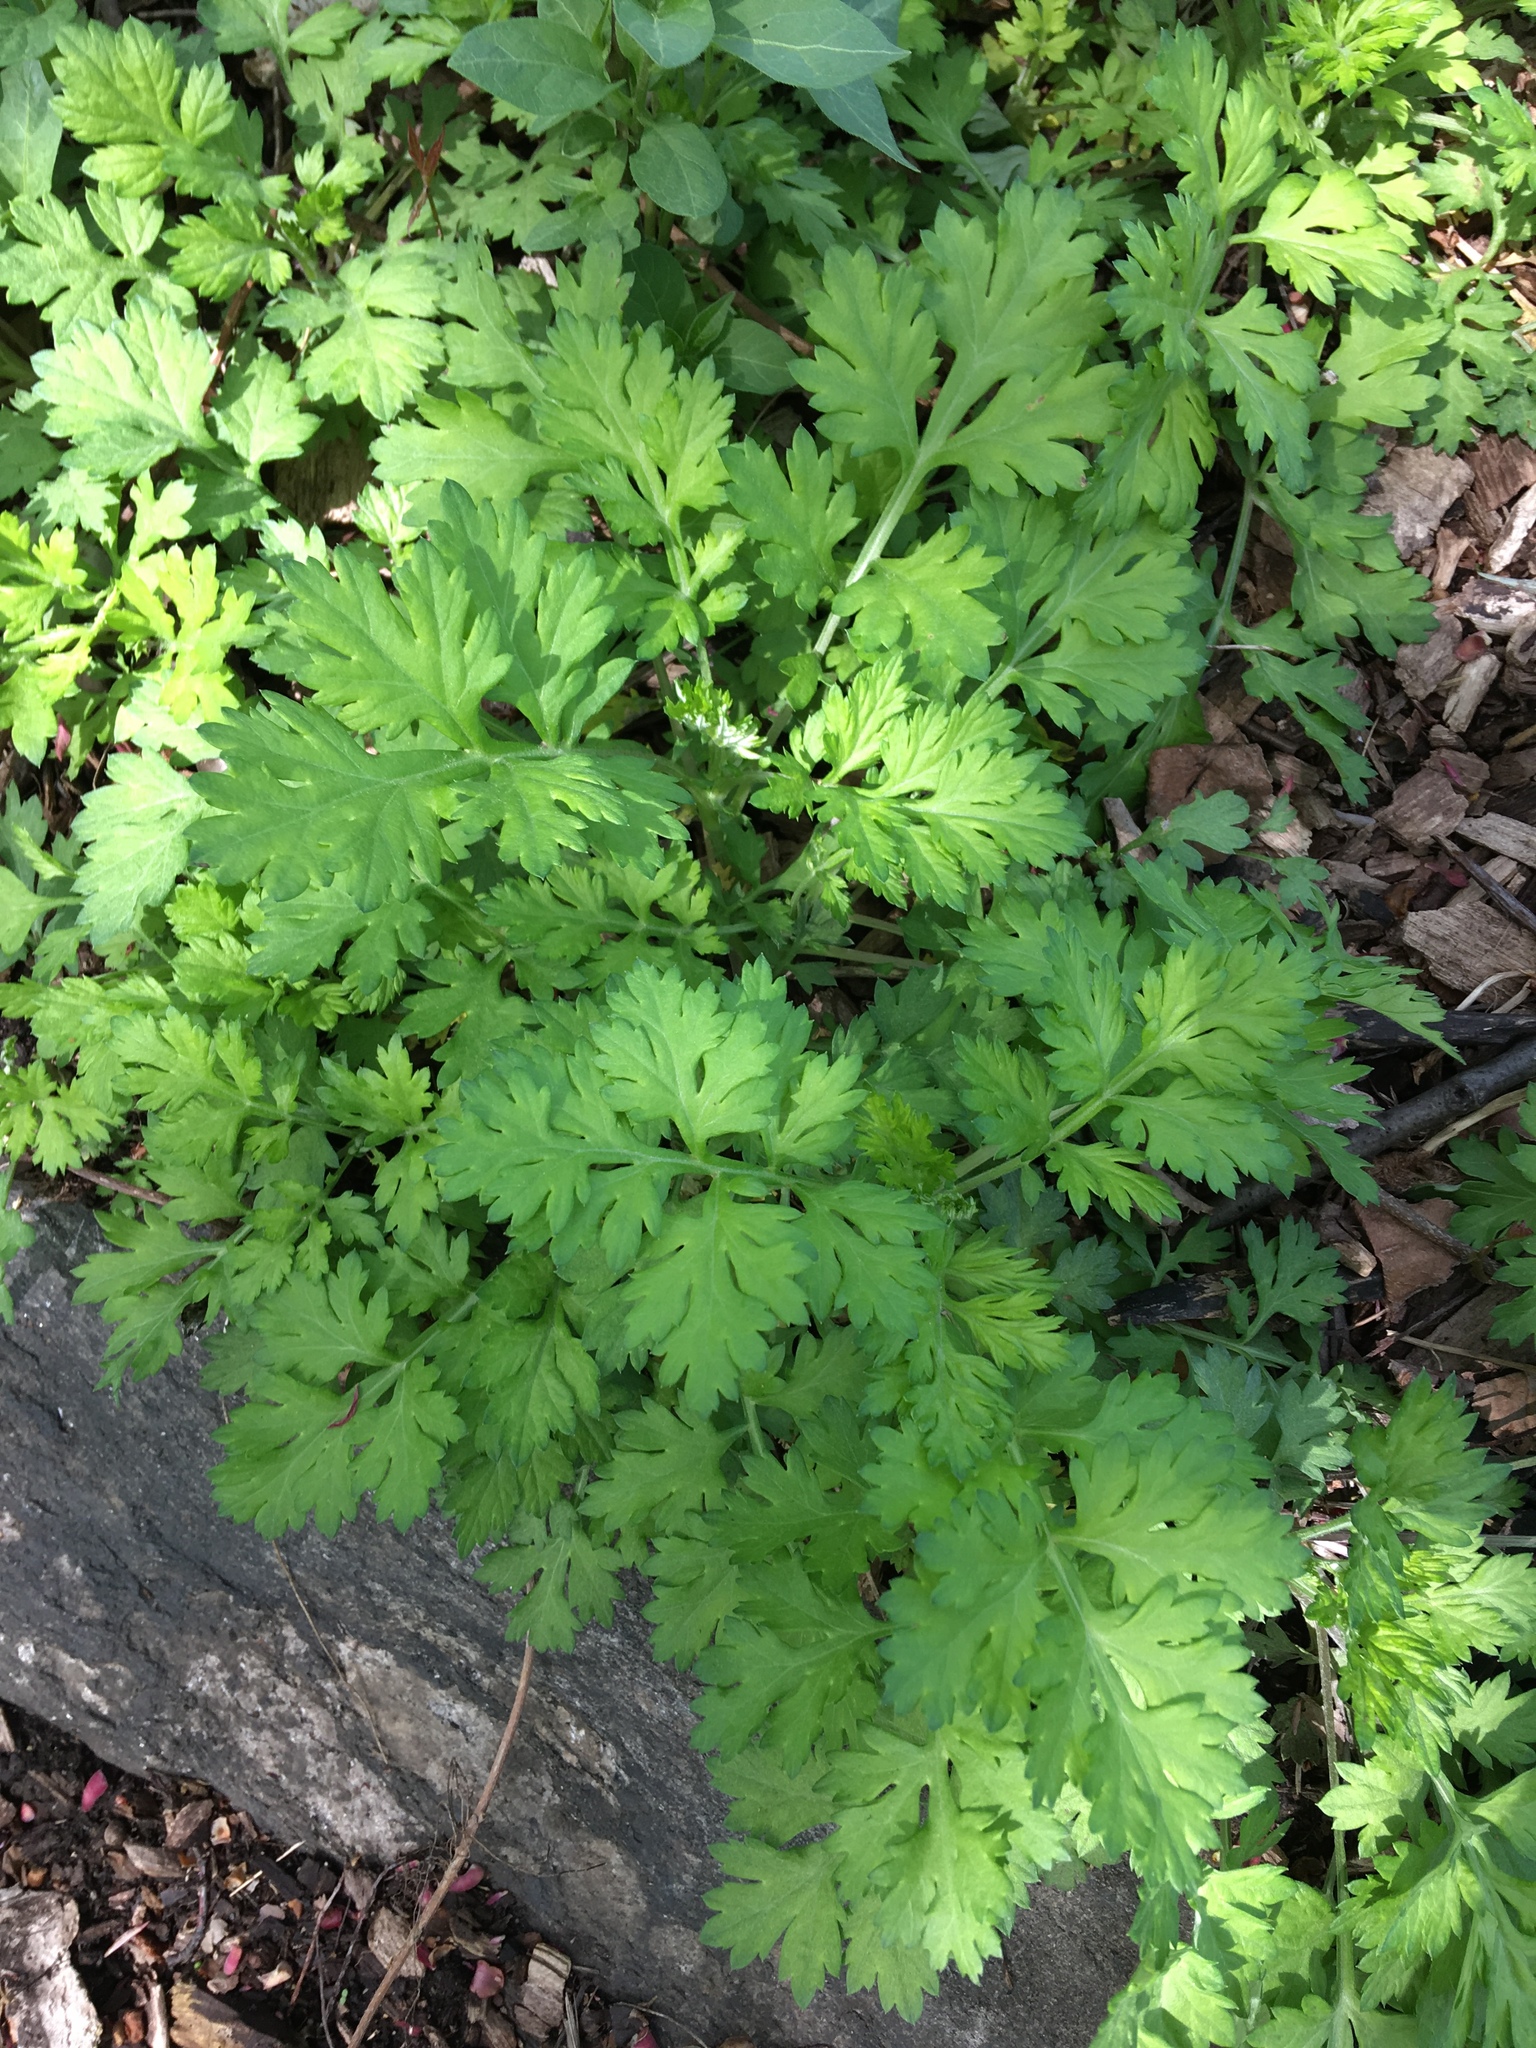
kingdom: Plantae
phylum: Tracheophyta
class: Magnoliopsida
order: Asterales
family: Asteraceae
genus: Artemisia
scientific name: Artemisia vulgaris
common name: Mugwort
